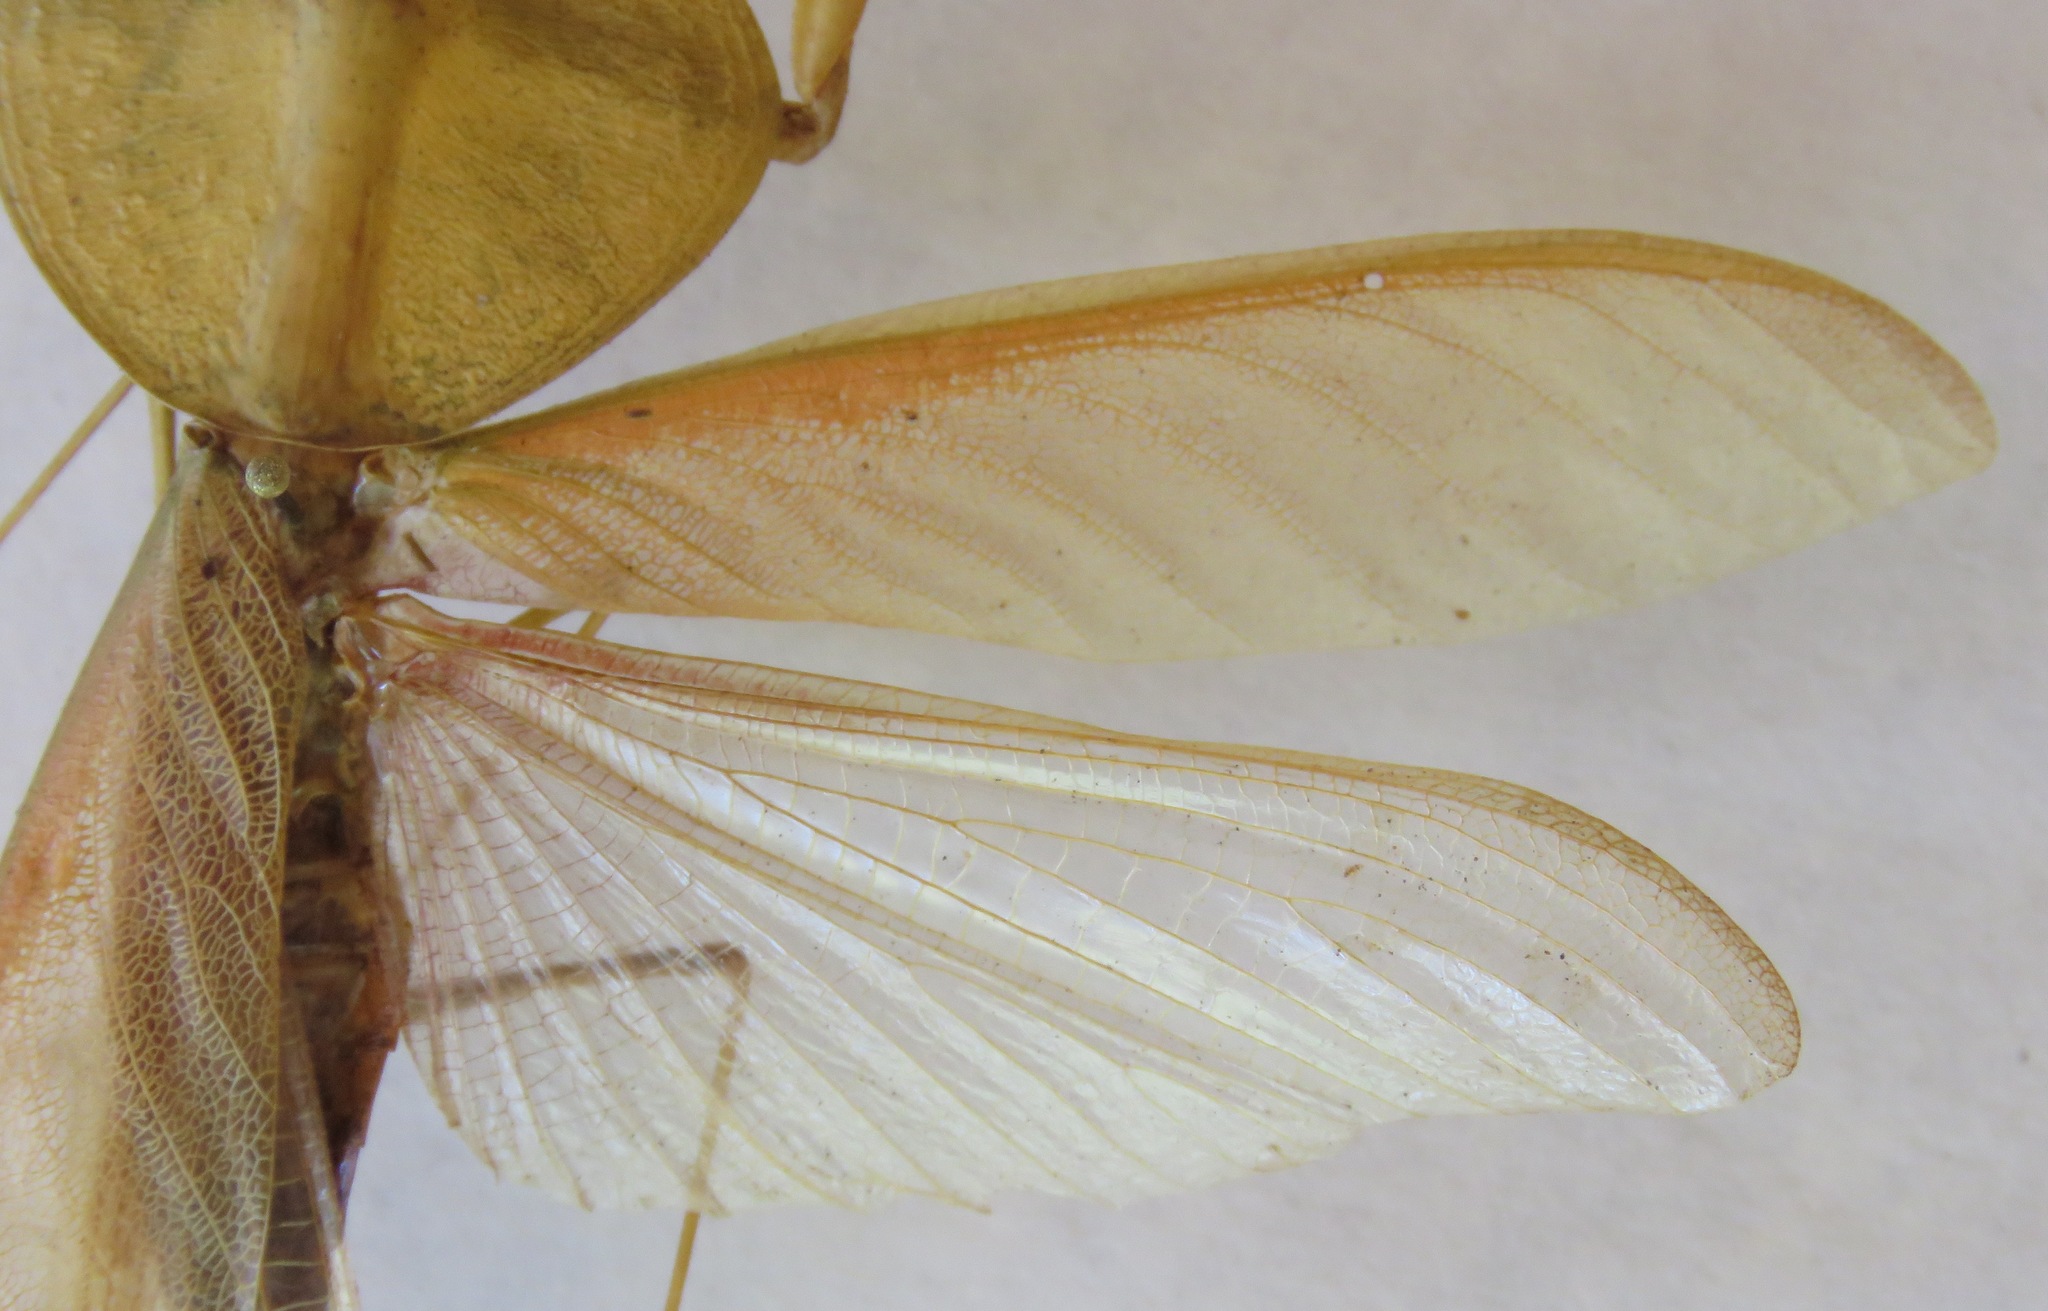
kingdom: Animalia
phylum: Arthropoda
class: Insecta
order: Mantodea
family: Mantidae
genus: Choeradodis
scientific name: Choeradodis rhombicollis
